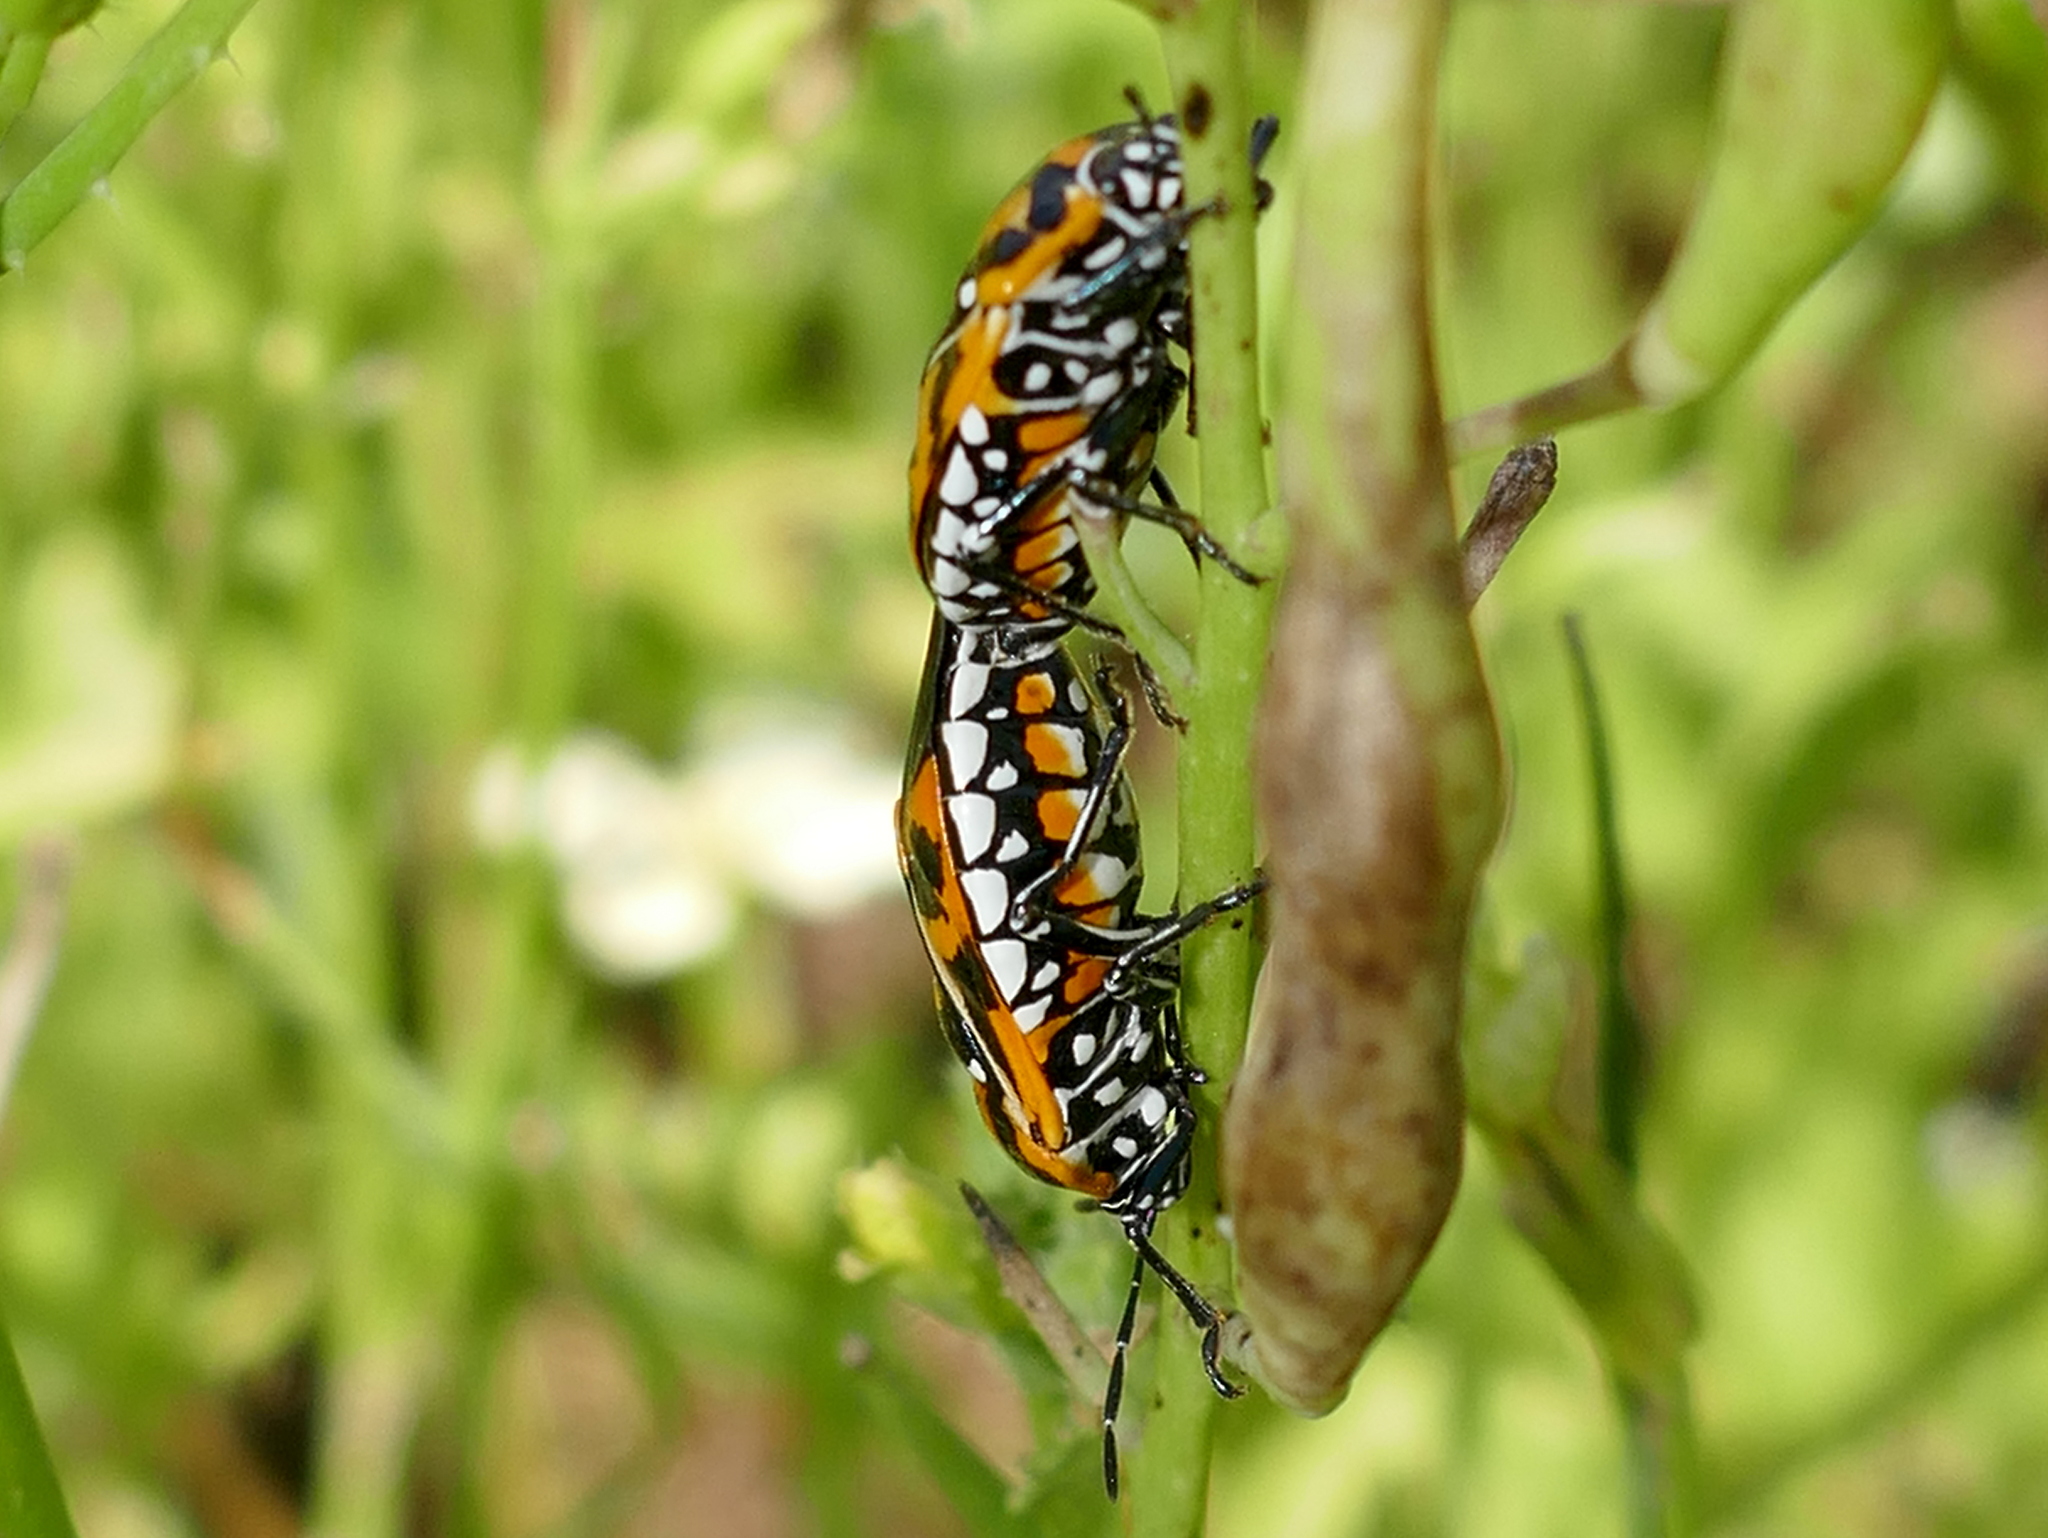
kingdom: Animalia
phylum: Arthropoda
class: Insecta
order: Hemiptera
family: Pentatomidae
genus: Murgantia
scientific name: Murgantia histrionica
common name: Harlequin bug
